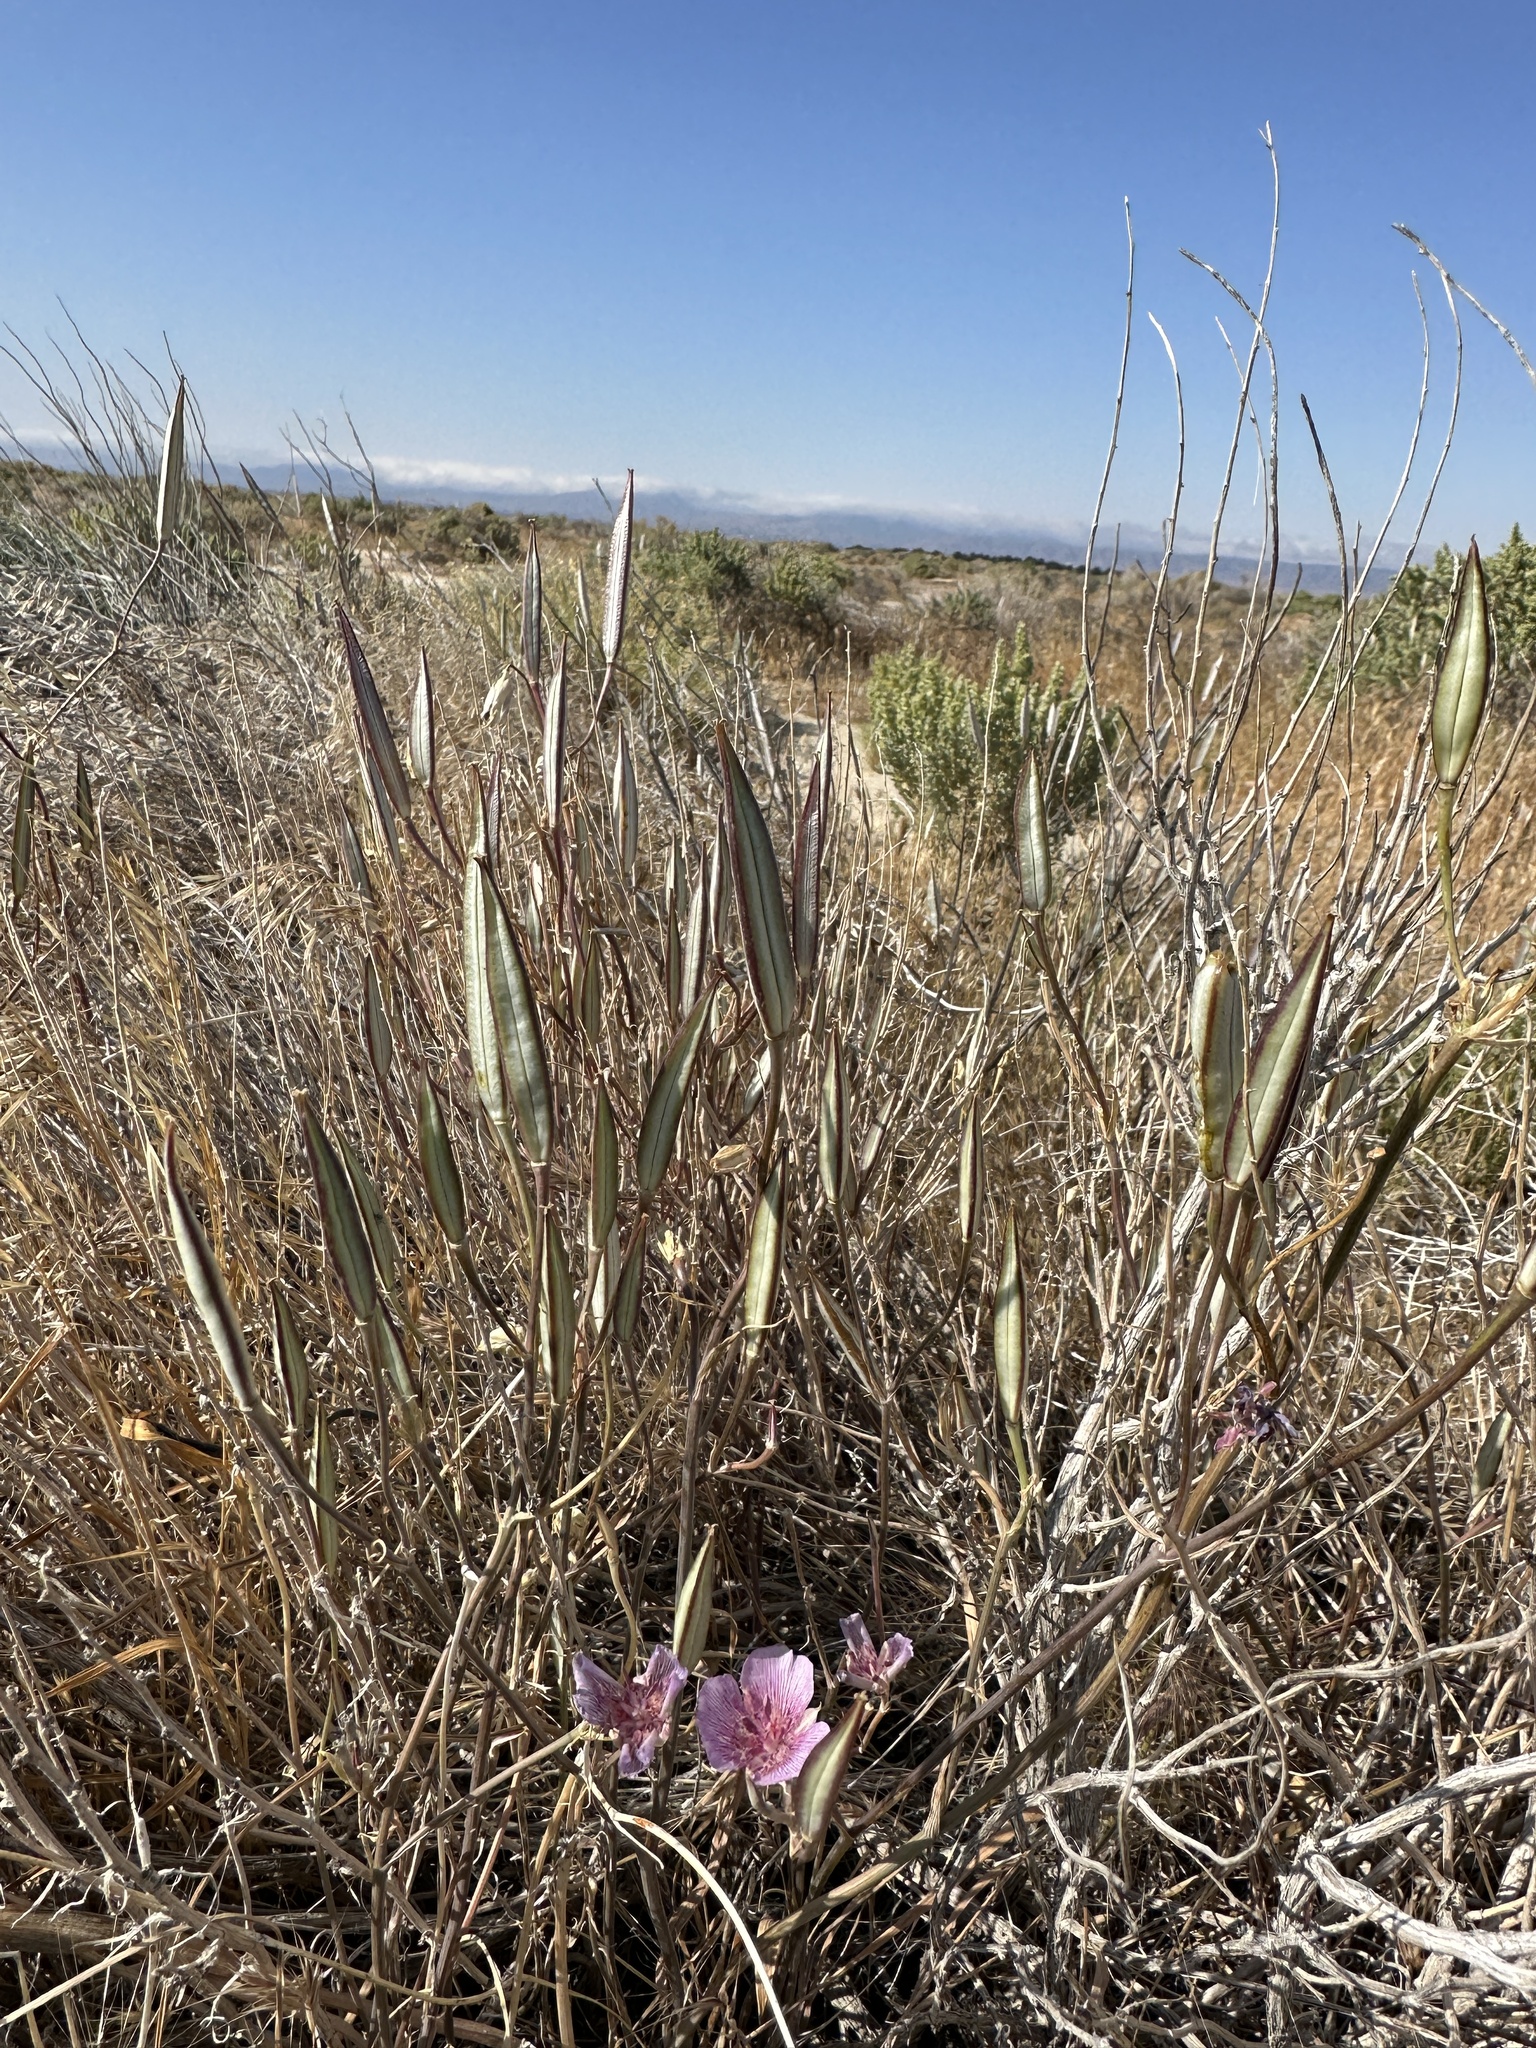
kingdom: Plantae
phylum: Tracheophyta
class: Liliopsida
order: Liliales
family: Liliaceae
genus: Calochortus
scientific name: Calochortus striatus
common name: Alkali mariposa-lily
